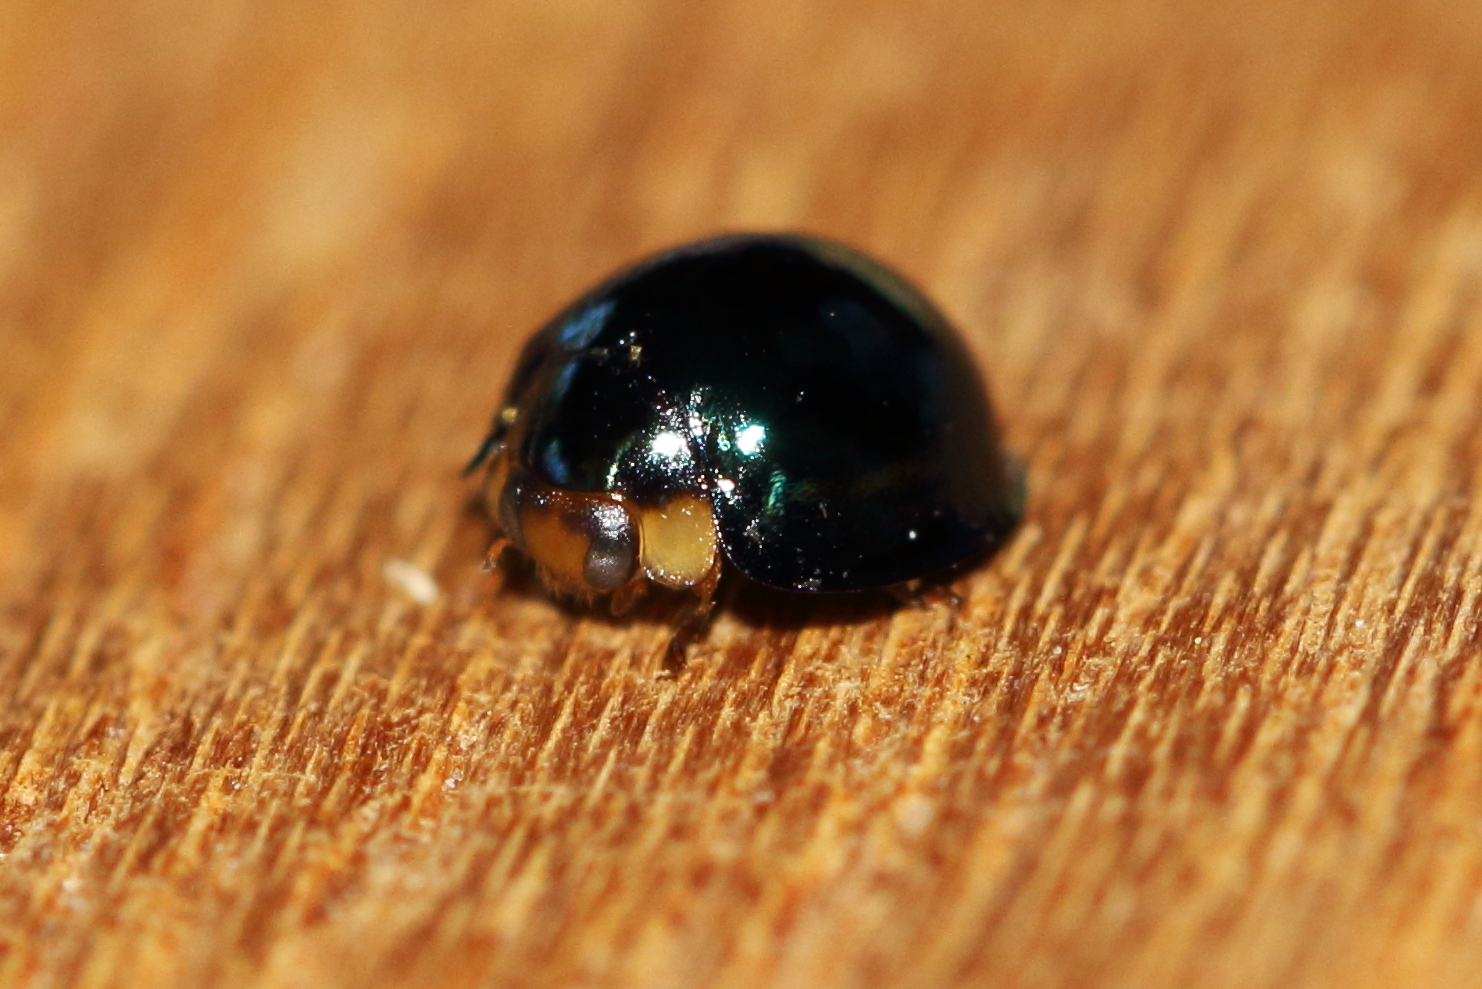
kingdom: Animalia
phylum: Arthropoda
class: Insecta
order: Coleoptera
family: Coccinellidae
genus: Halmus
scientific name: Halmus chalybeus
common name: Steel blue ladybird beetle
